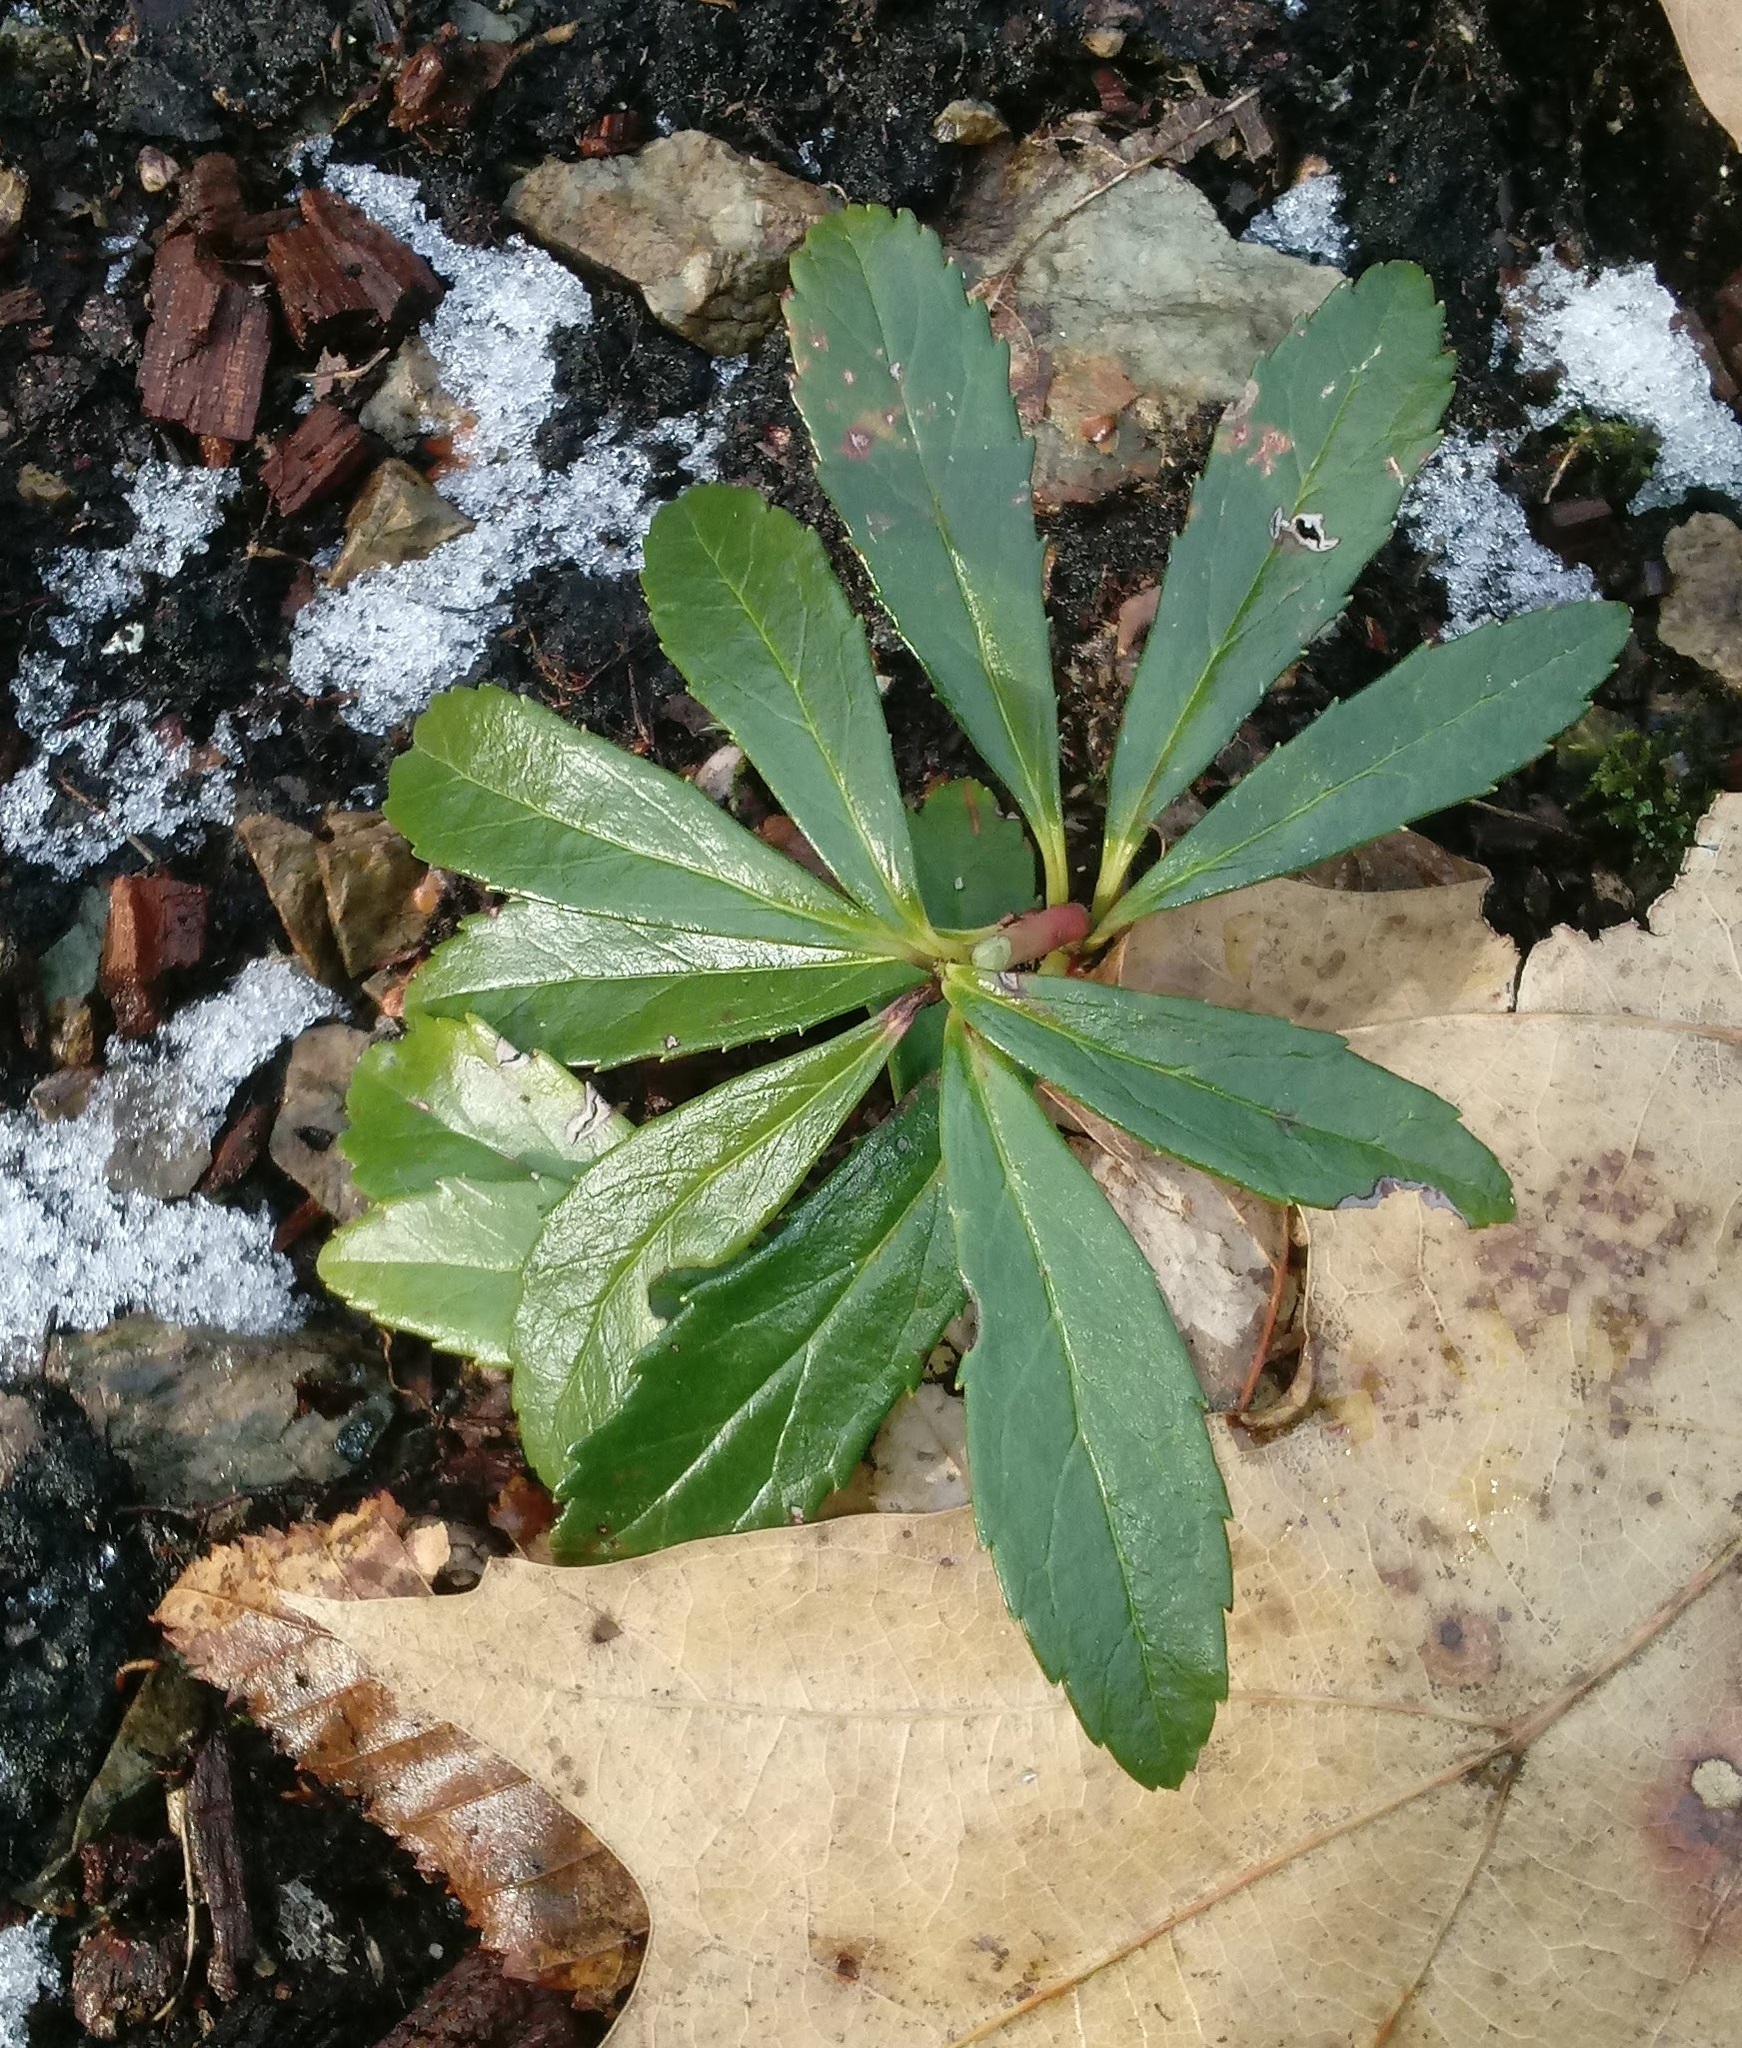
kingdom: Plantae
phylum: Tracheophyta
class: Magnoliopsida
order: Ericales
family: Ericaceae
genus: Chimaphila
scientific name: Chimaphila umbellata
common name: Pipsissewa
